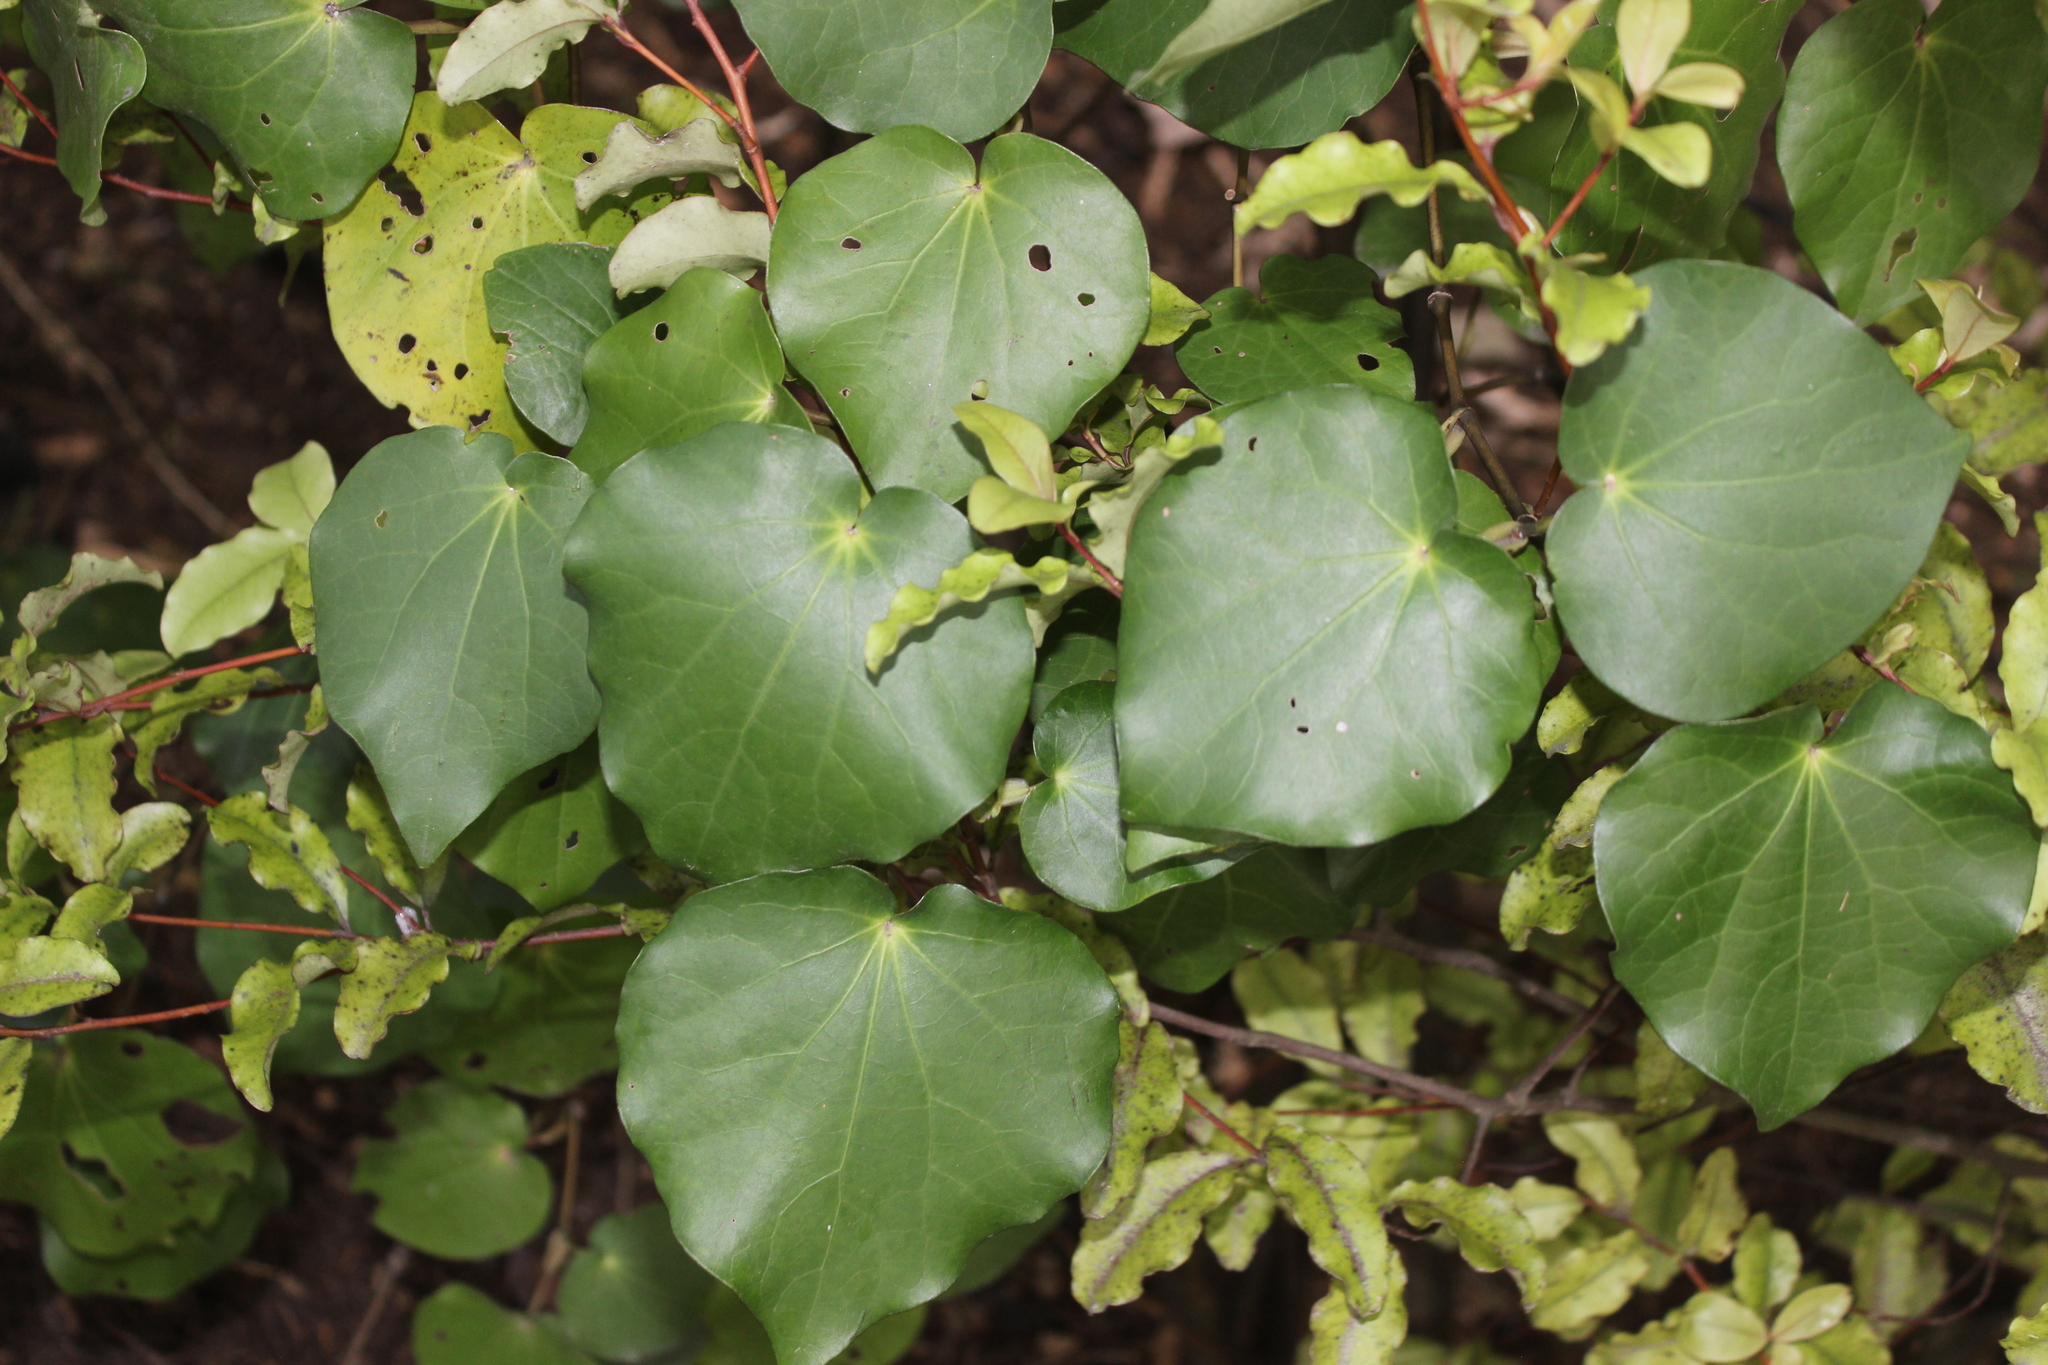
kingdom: Plantae
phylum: Tracheophyta
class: Magnoliopsida
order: Piperales
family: Piperaceae
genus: Macropiper
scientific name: Macropiper excelsum
